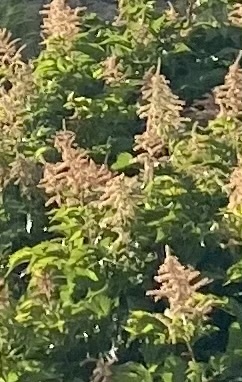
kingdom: Plantae
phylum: Tracheophyta
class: Magnoliopsida
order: Rosales
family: Rosaceae
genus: Aruncus
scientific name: Aruncus dioicus
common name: Buck's-beard
